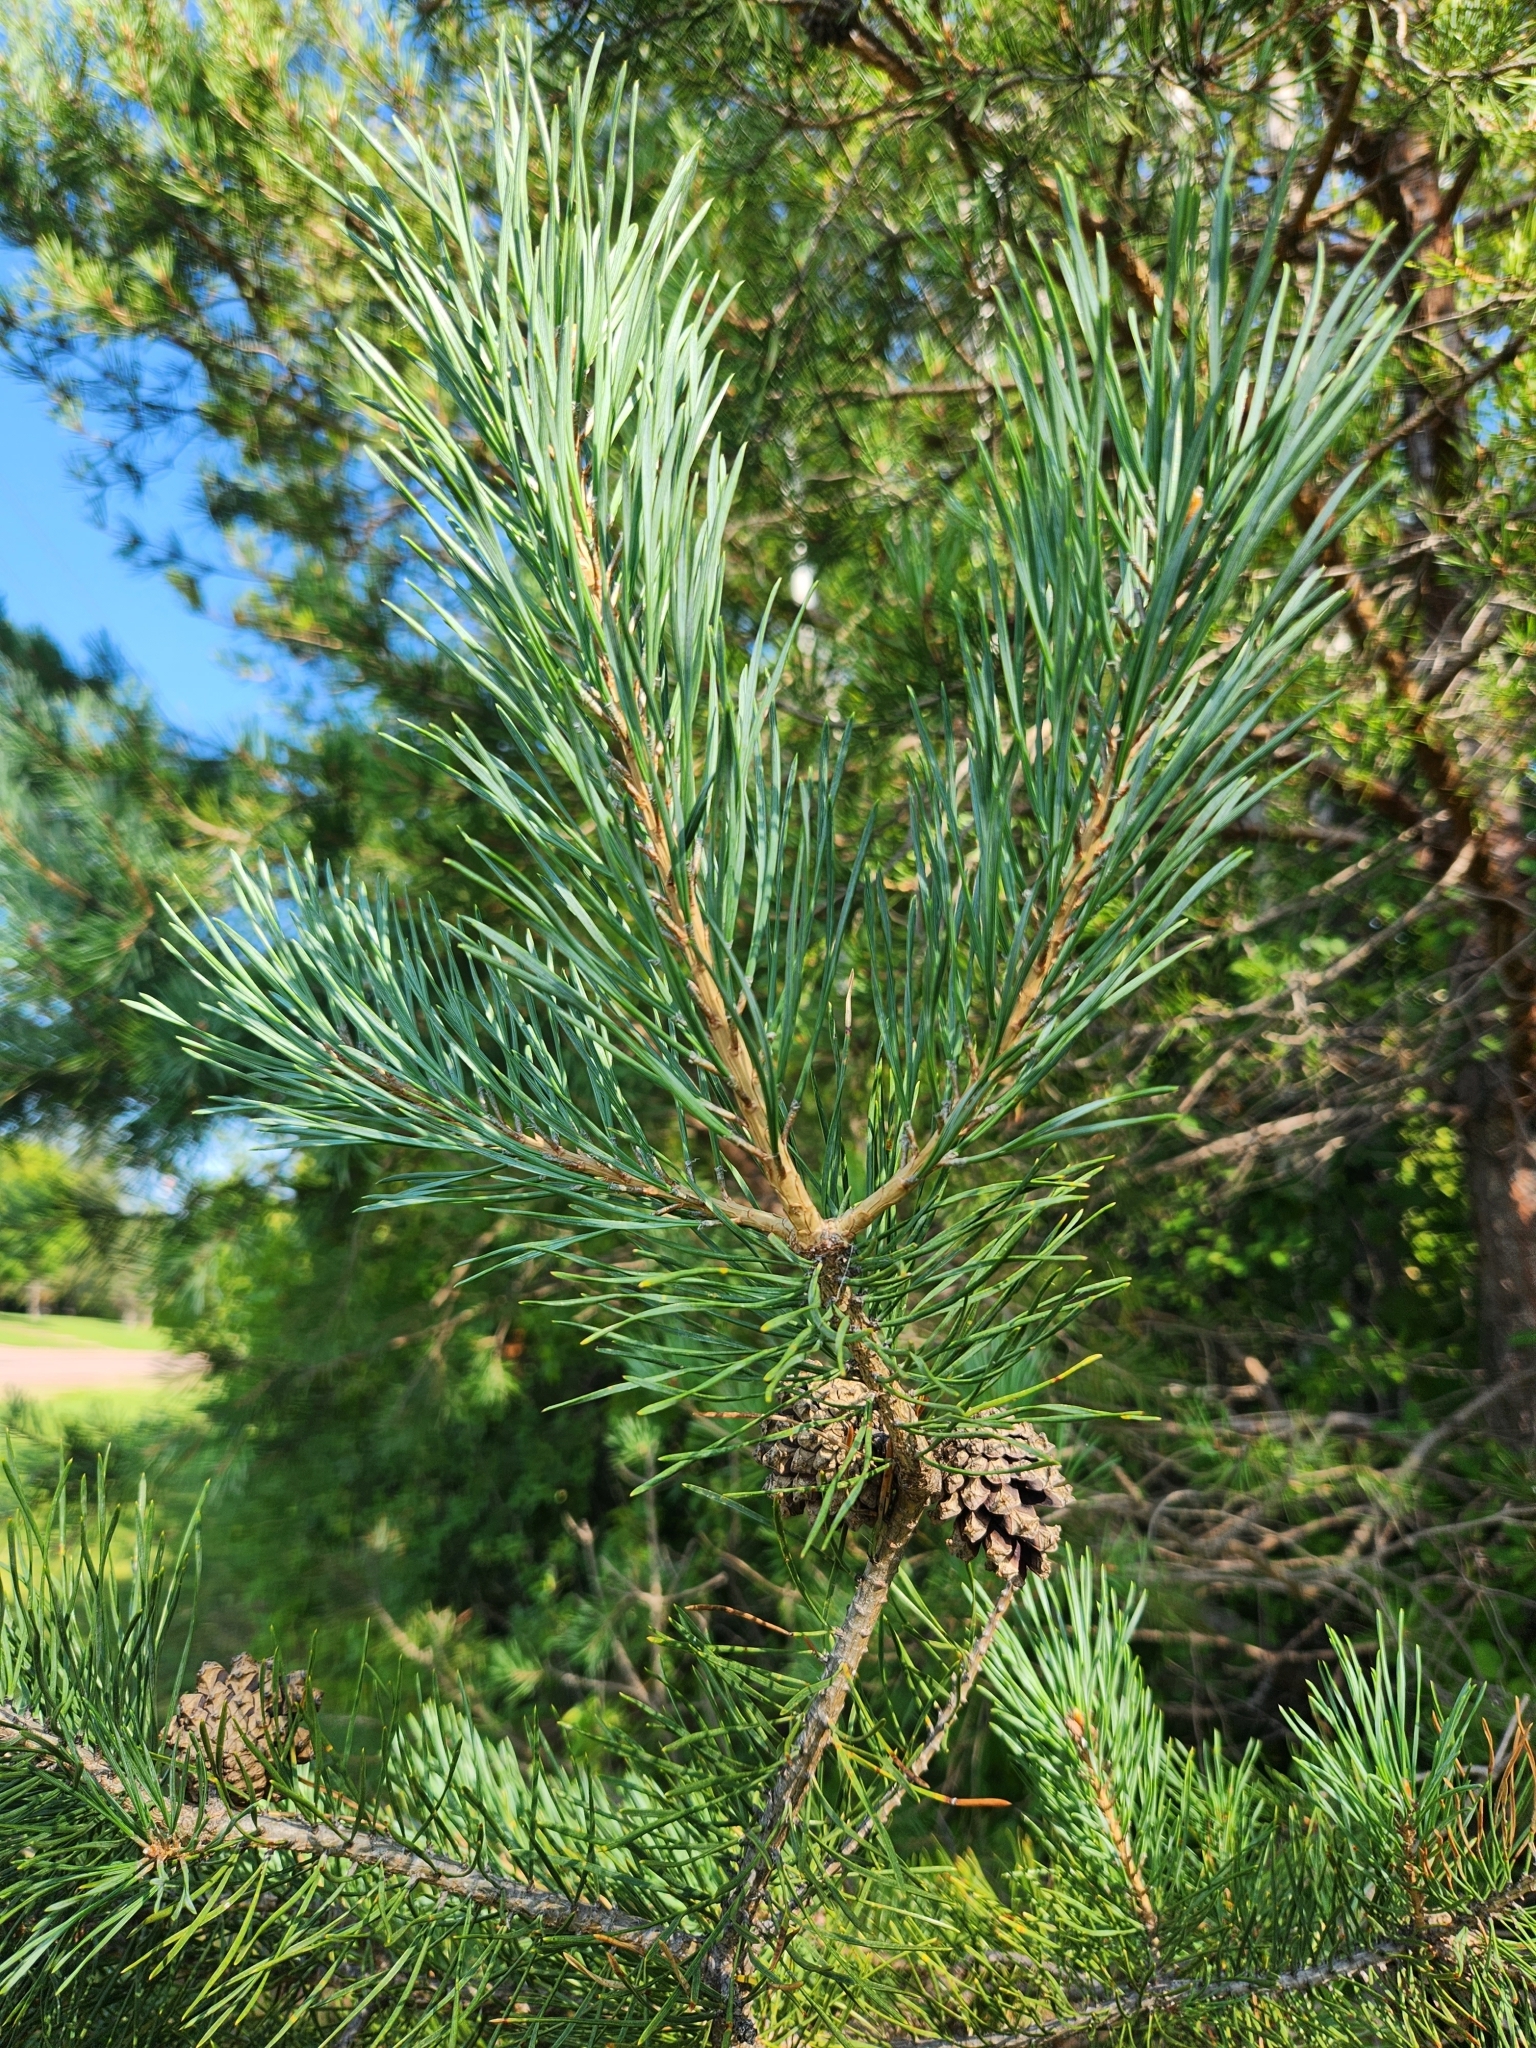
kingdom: Plantae
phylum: Tracheophyta
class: Pinopsida
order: Pinales
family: Pinaceae
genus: Pinus
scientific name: Pinus sylvestris
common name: Scots pine
